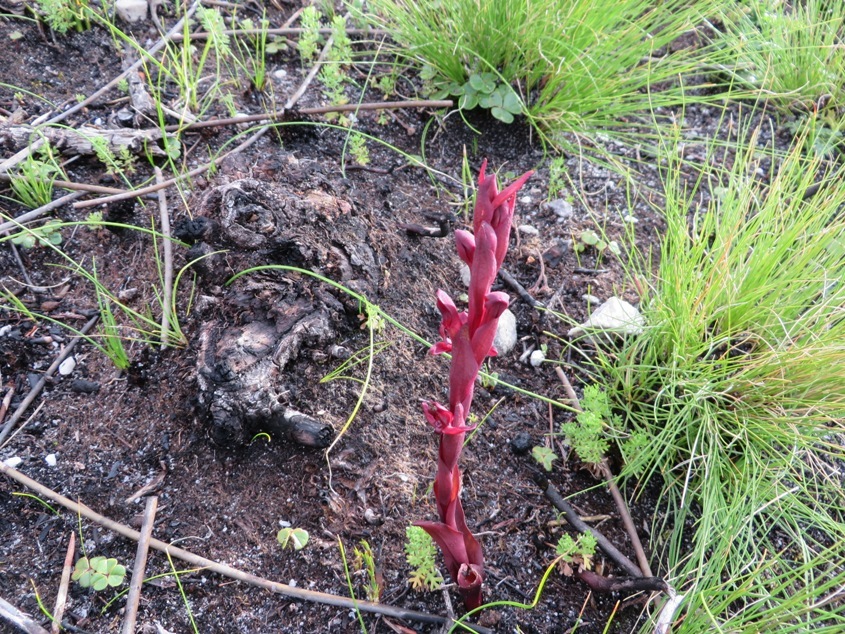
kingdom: Plantae
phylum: Tracheophyta
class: Liliopsida
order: Asparagales
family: Orchidaceae
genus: Disa
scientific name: Disa ophrydea
